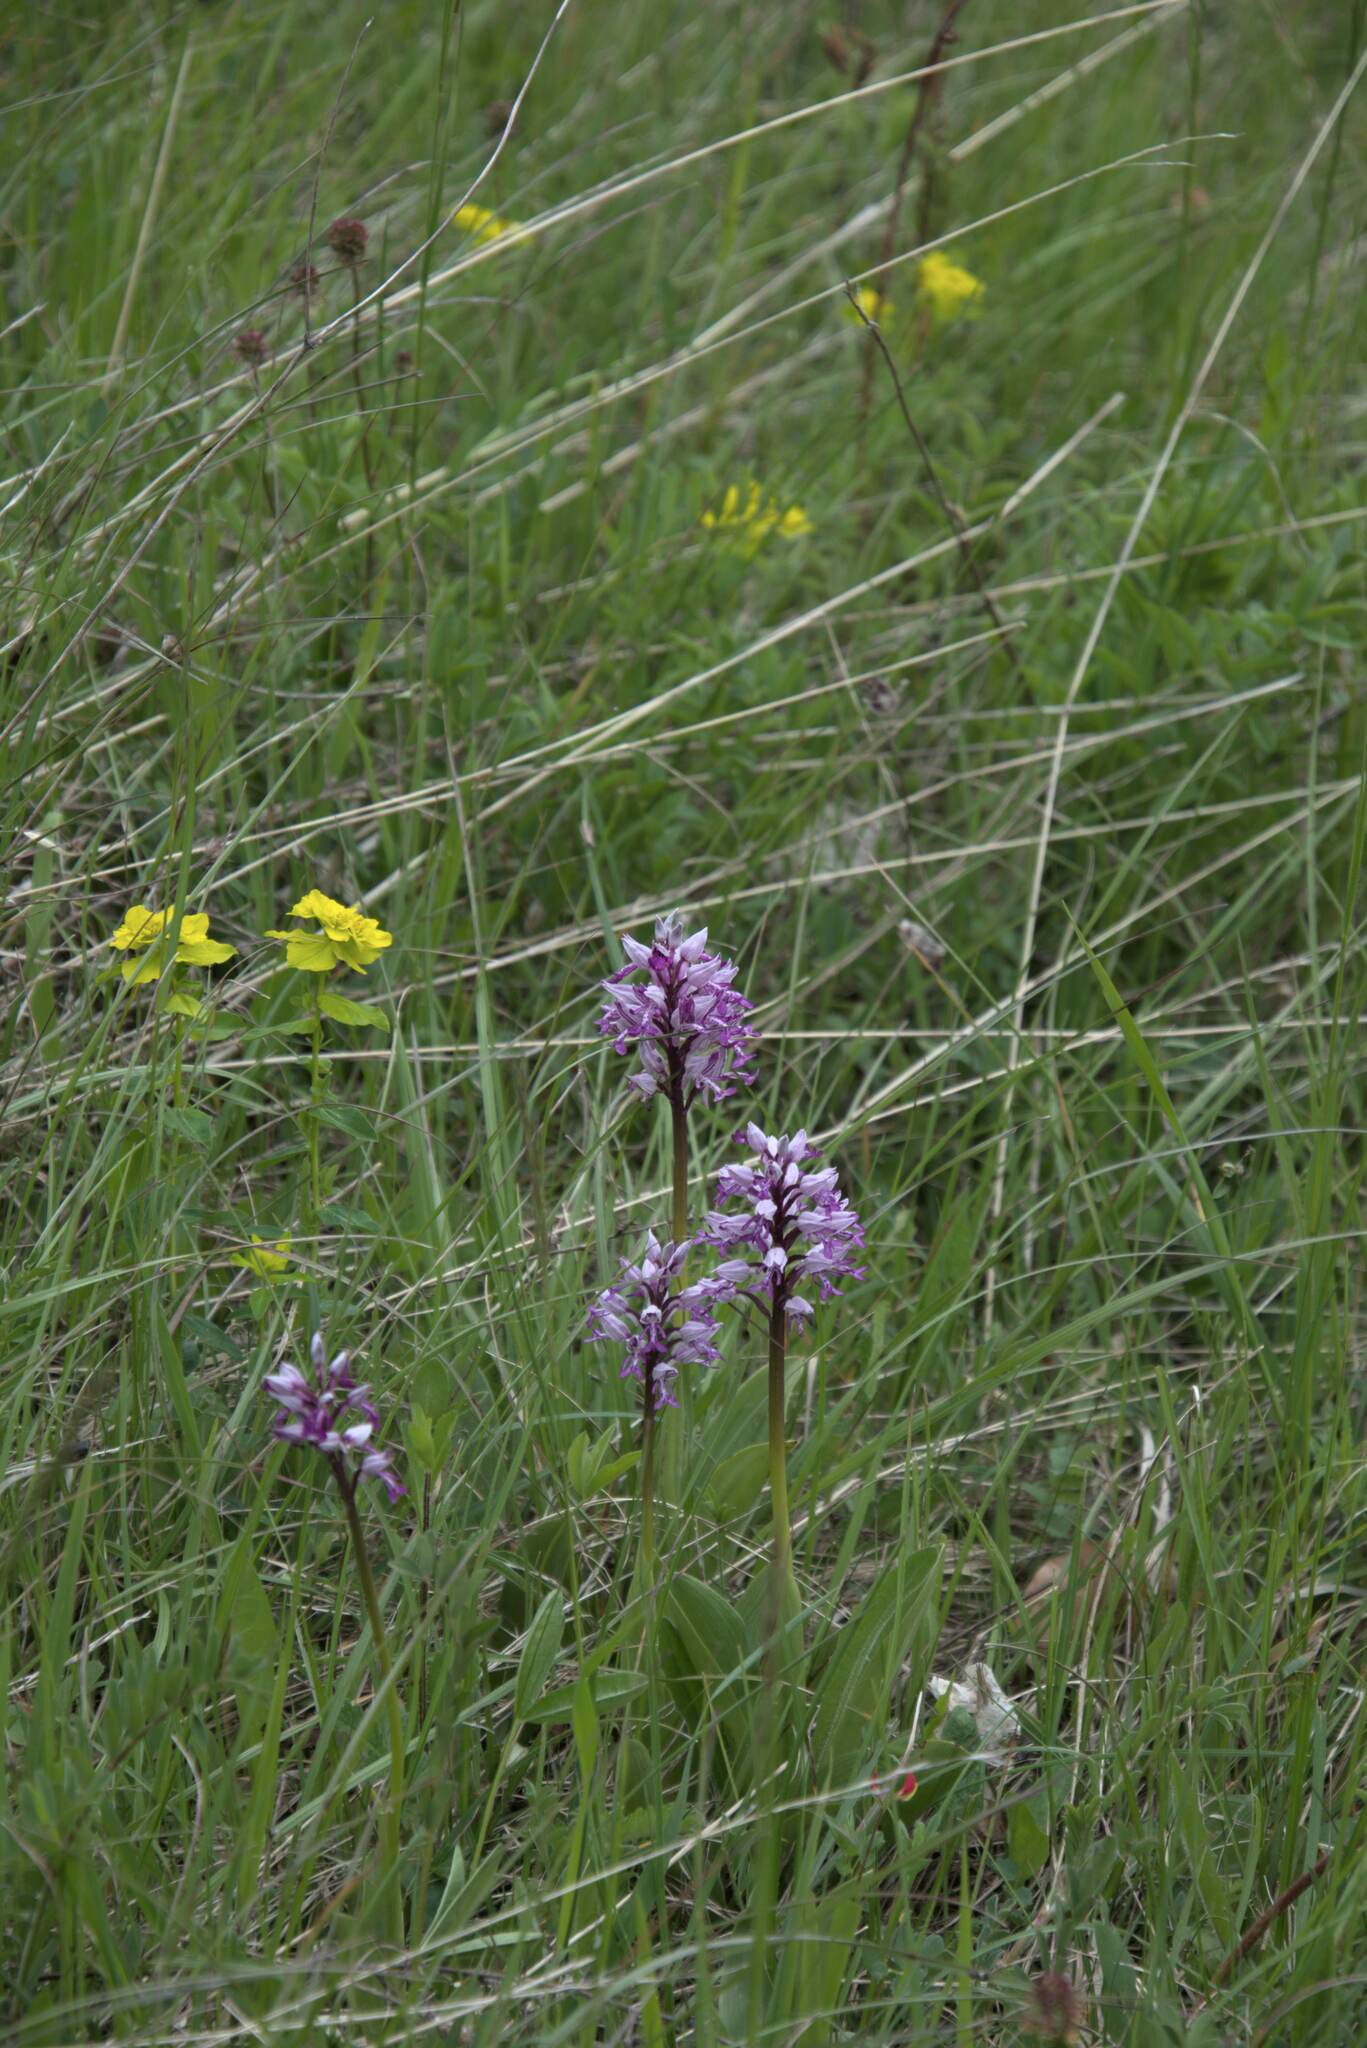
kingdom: Plantae
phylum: Tracheophyta
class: Liliopsida
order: Asparagales
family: Orchidaceae
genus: Orchis
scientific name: Orchis militaris
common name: Military orchid
